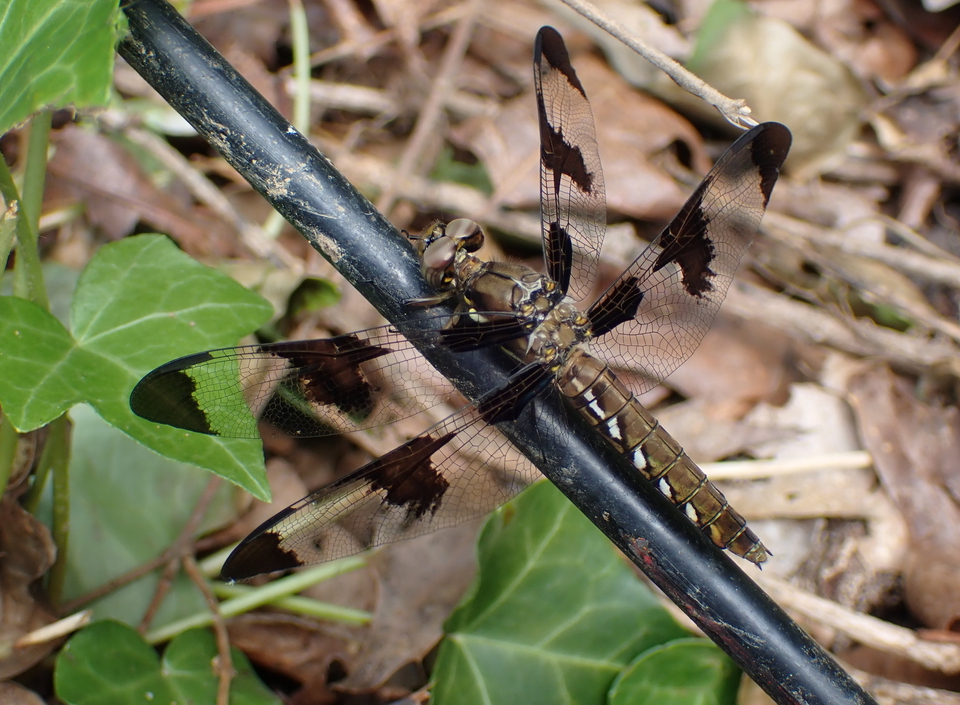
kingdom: Animalia
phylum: Arthropoda
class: Insecta
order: Odonata
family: Libellulidae
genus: Plathemis
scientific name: Plathemis lydia
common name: Common whitetail
